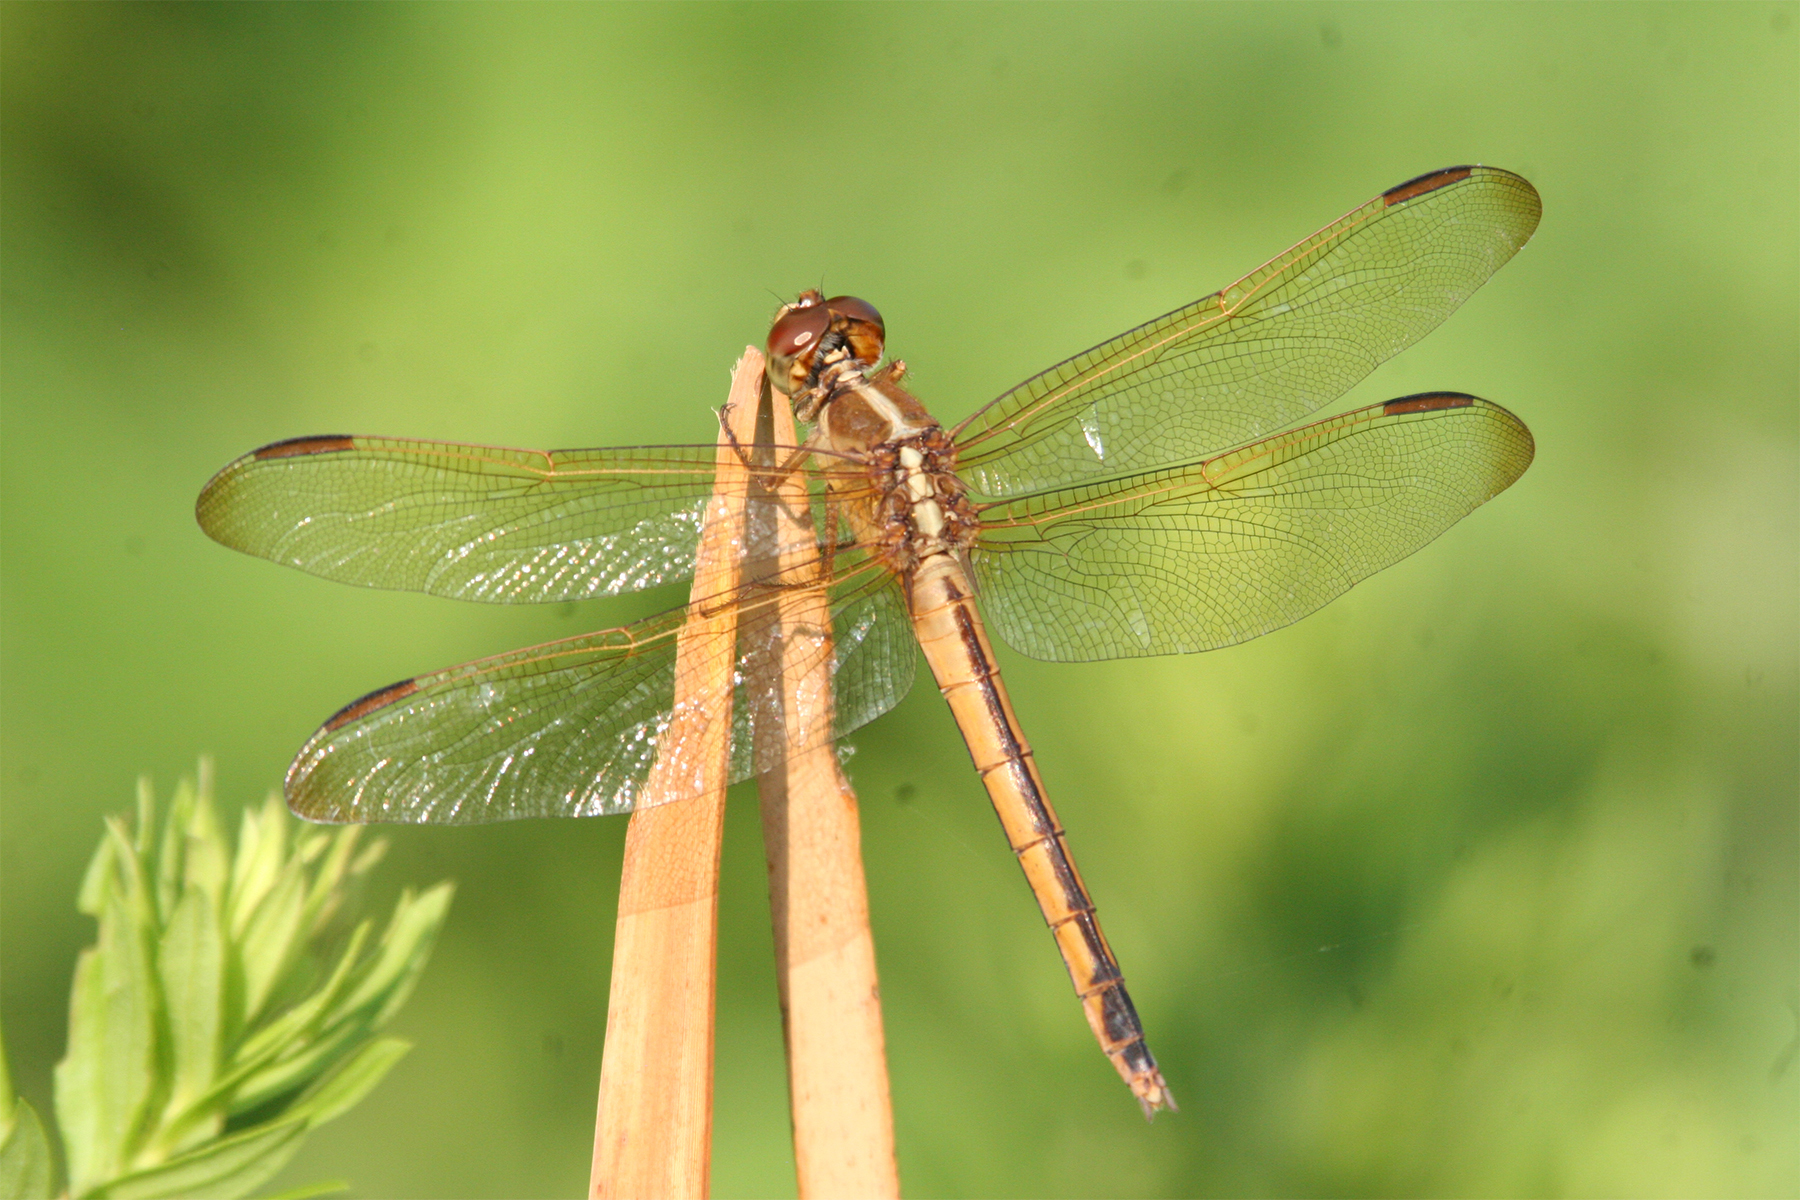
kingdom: Animalia
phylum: Arthropoda
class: Insecta
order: Odonata
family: Libellulidae
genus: Libellula
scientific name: Libellula needhami
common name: Needham's skimmer
